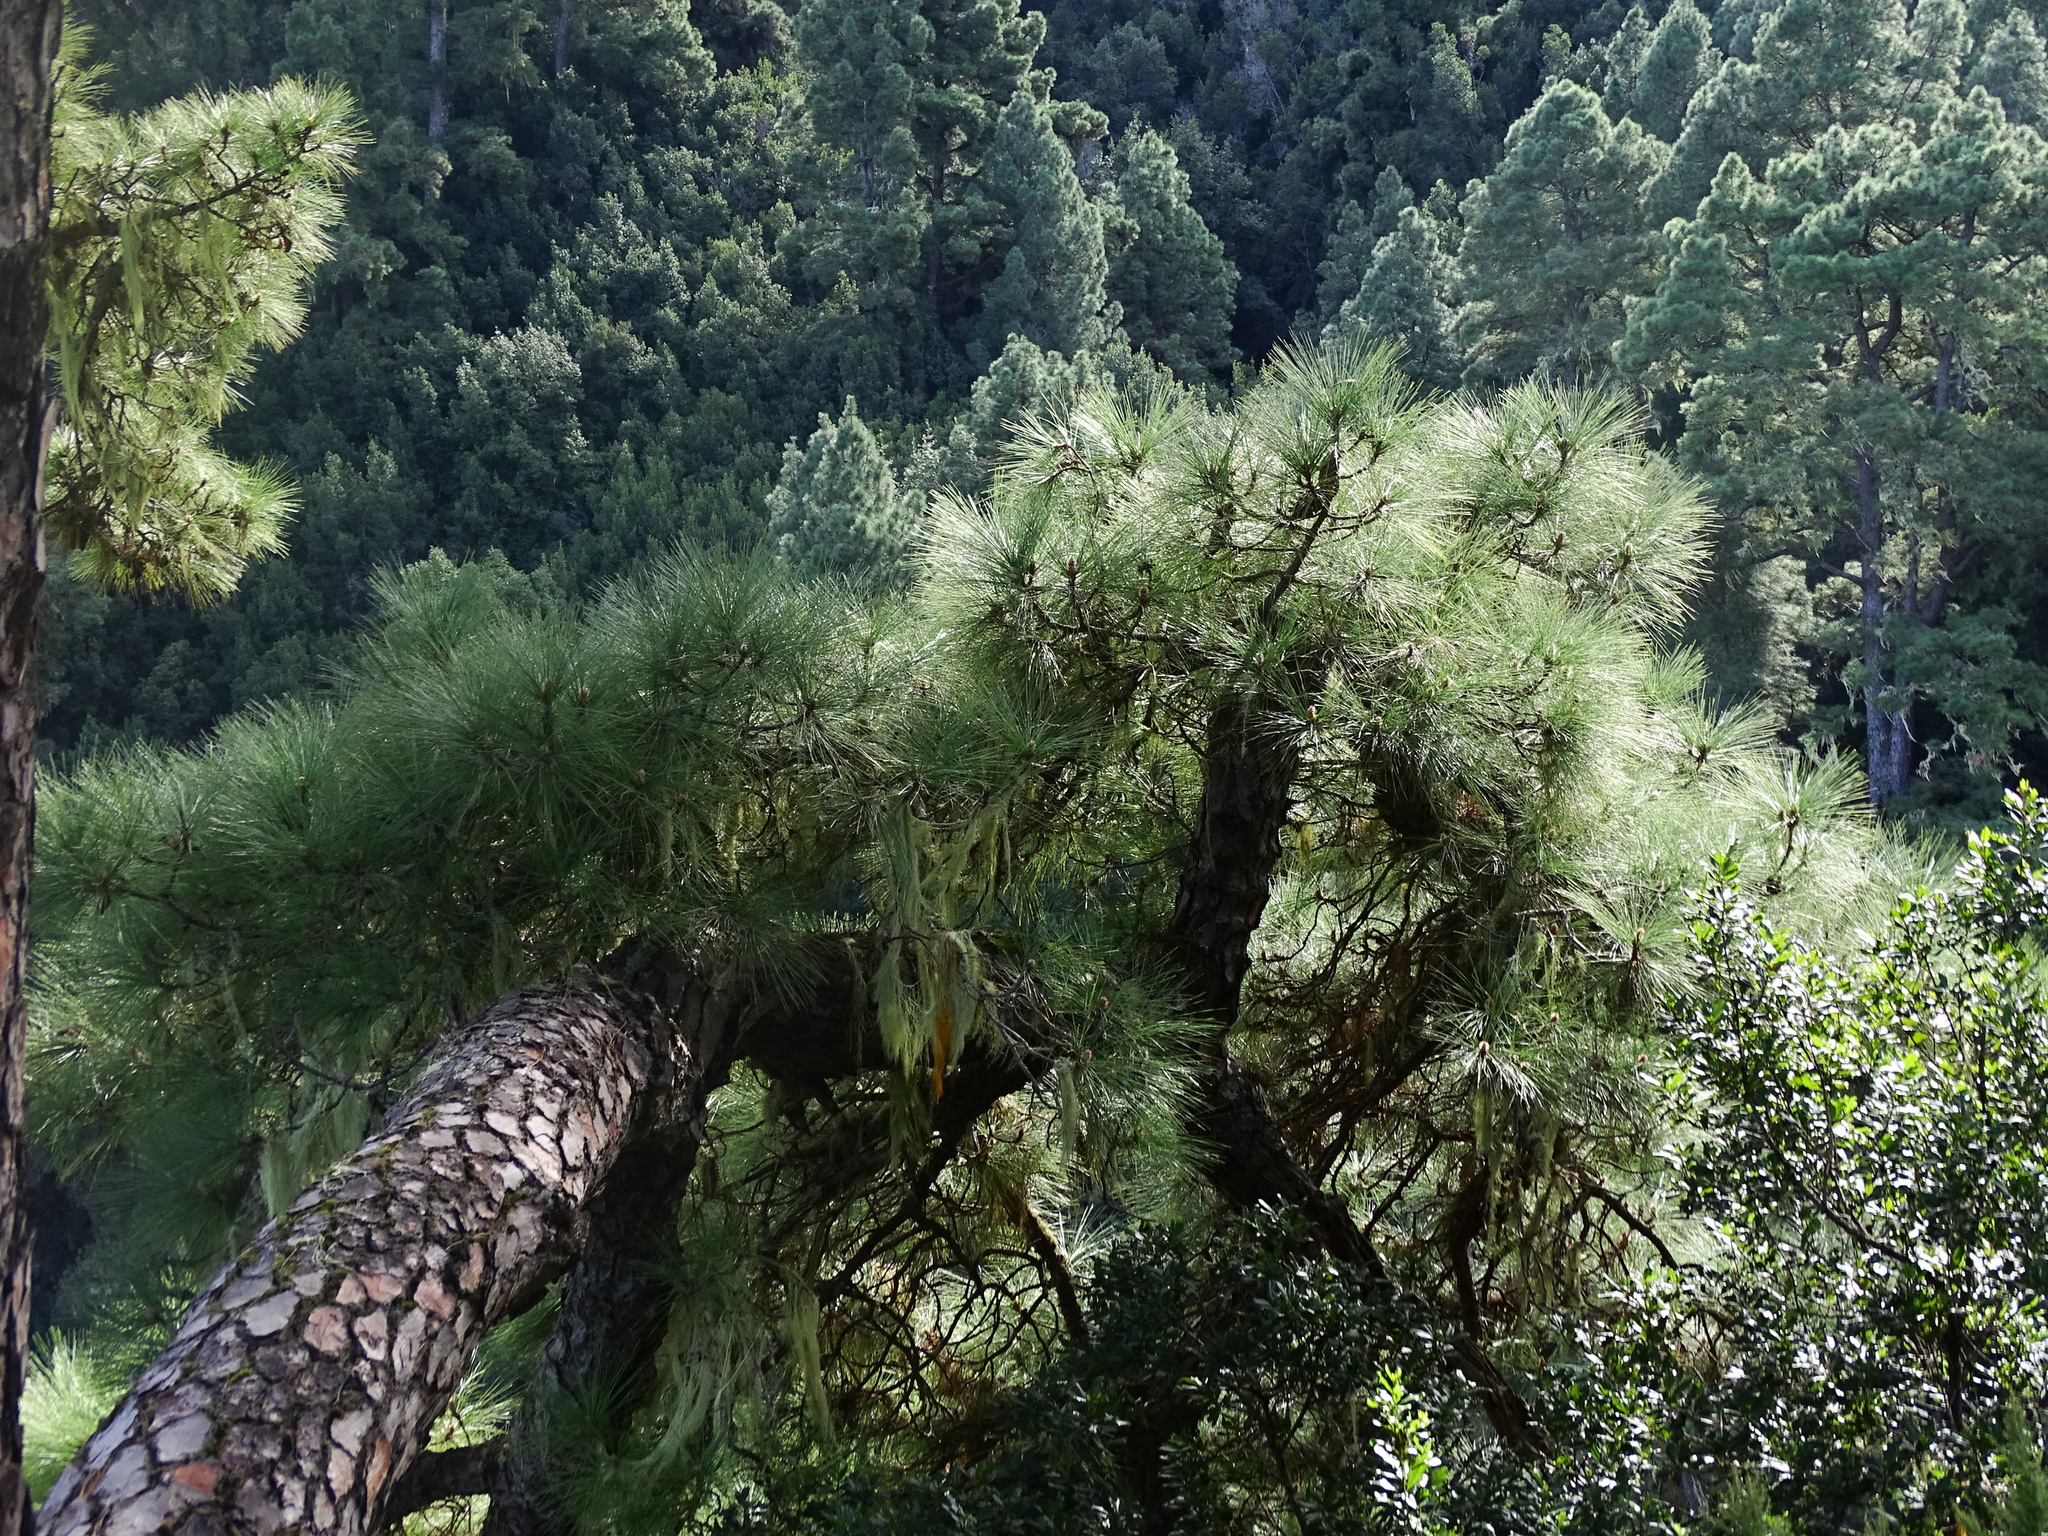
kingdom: Plantae
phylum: Tracheophyta
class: Pinopsida
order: Pinales
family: Pinaceae
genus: Pinus
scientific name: Pinus canariensis
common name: Canary islands pine
